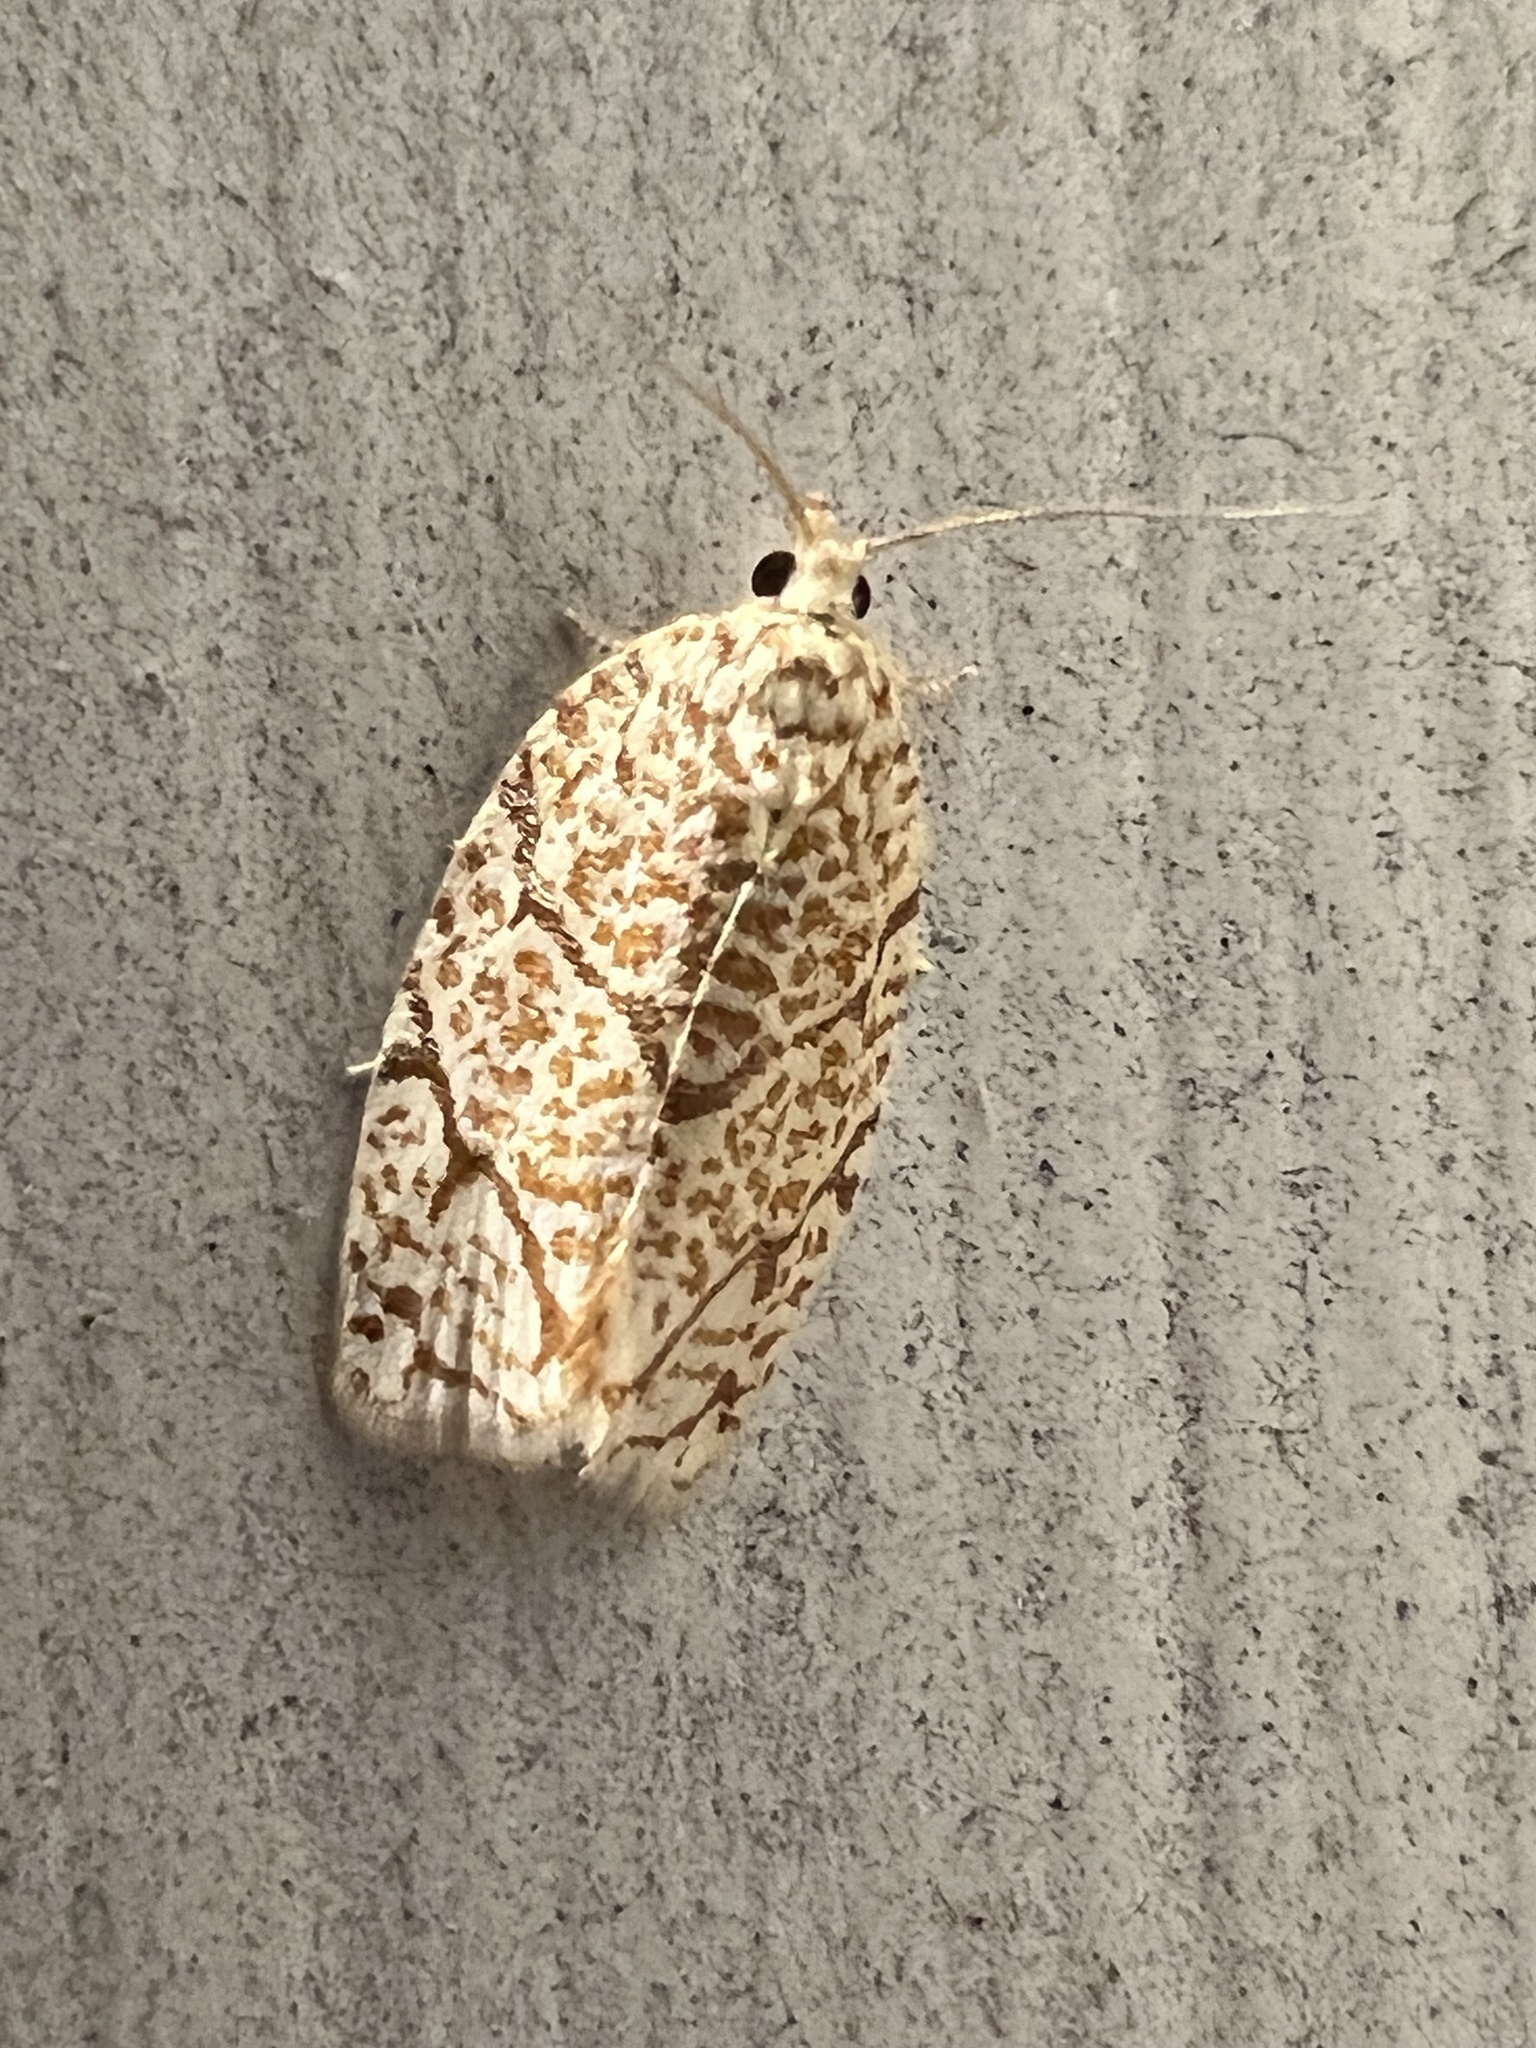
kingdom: Animalia
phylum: Arthropoda
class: Insecta
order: Lepidoptera
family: Tortricidae
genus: Argyrotaenia
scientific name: Argyrotaenia quercifoliana
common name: Yellow-winged oak leafroller moth
